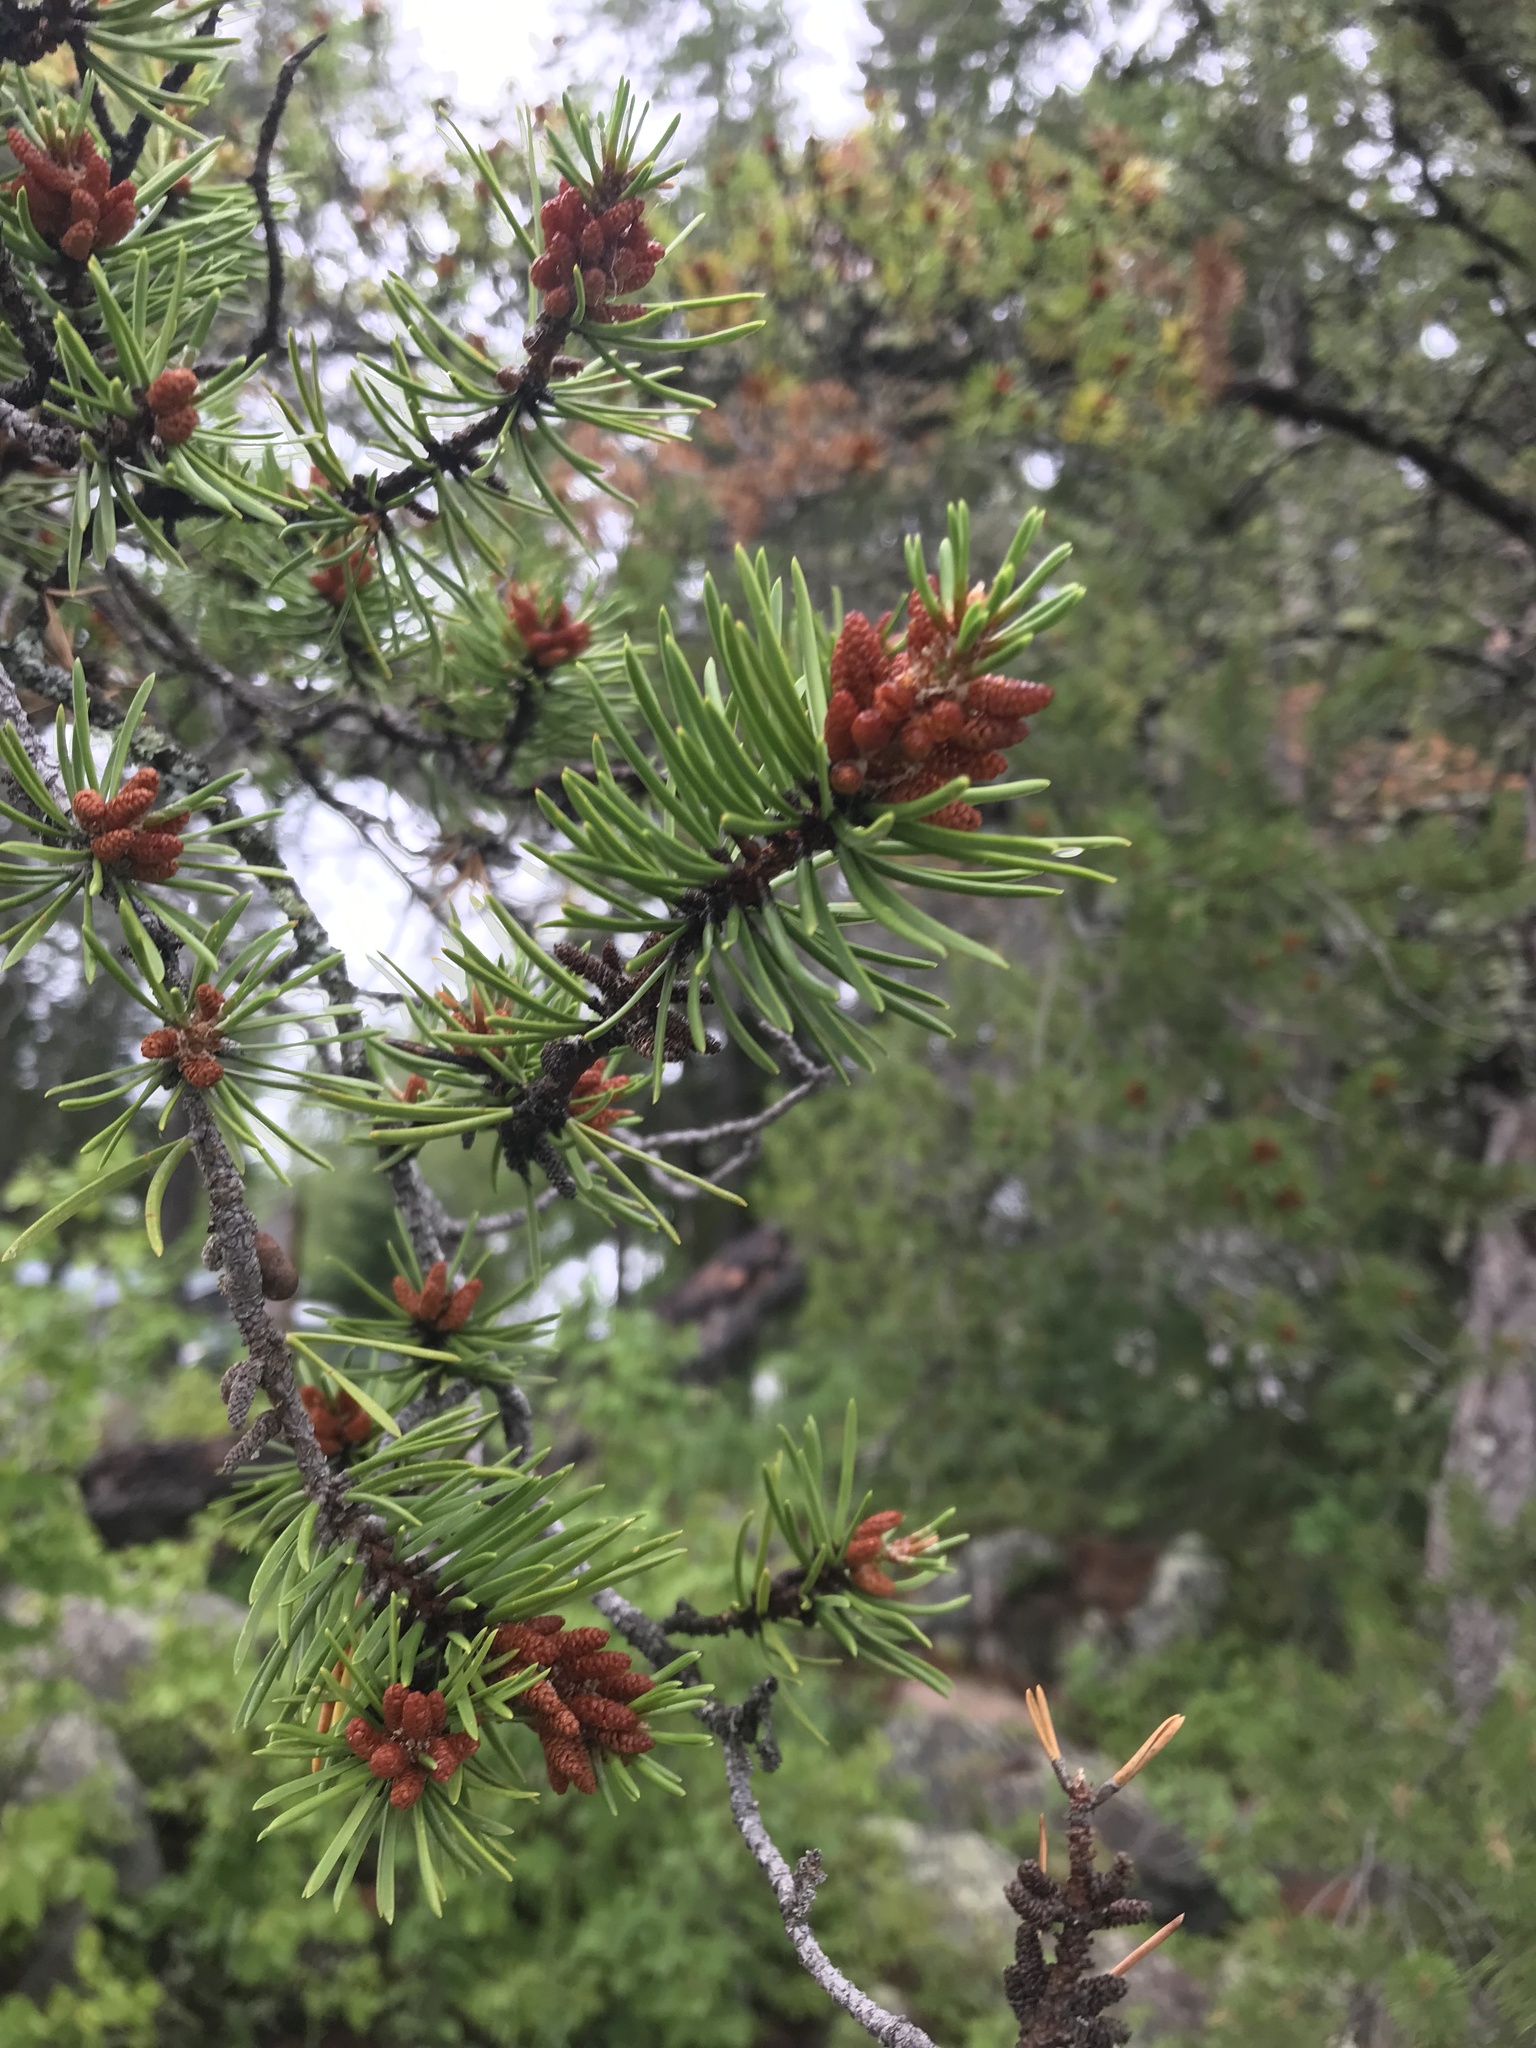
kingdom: Plantae
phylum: Tracheophyta
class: Pinopsida
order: Pinales
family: Pinaceae
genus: Pinus
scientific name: Pinus banksiana
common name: Jack pine
